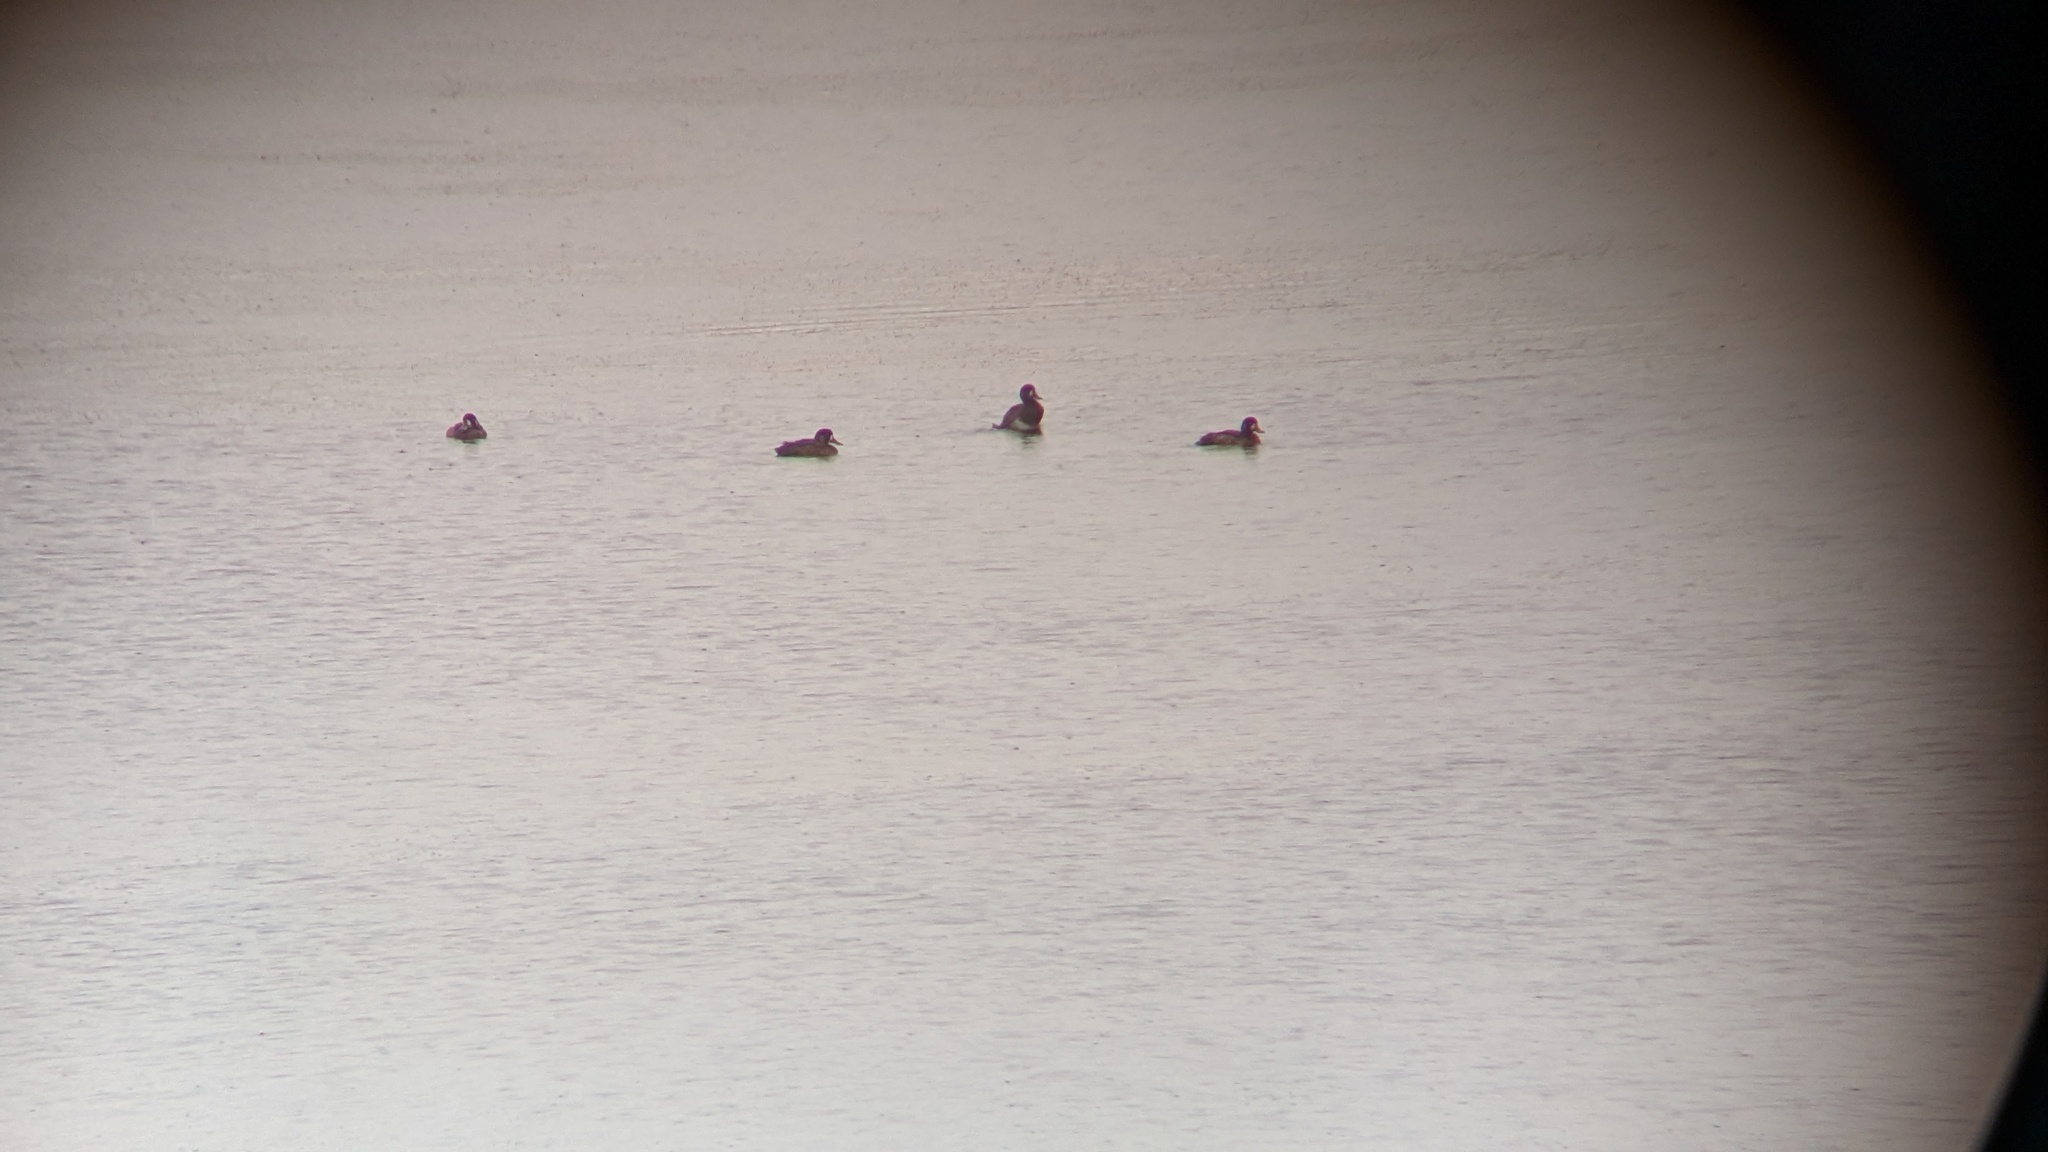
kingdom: Animalia
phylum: Chordata
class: Aves
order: Anseriformes
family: Anatidae
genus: Aythya
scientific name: Aythya marila
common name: Greater scaup
